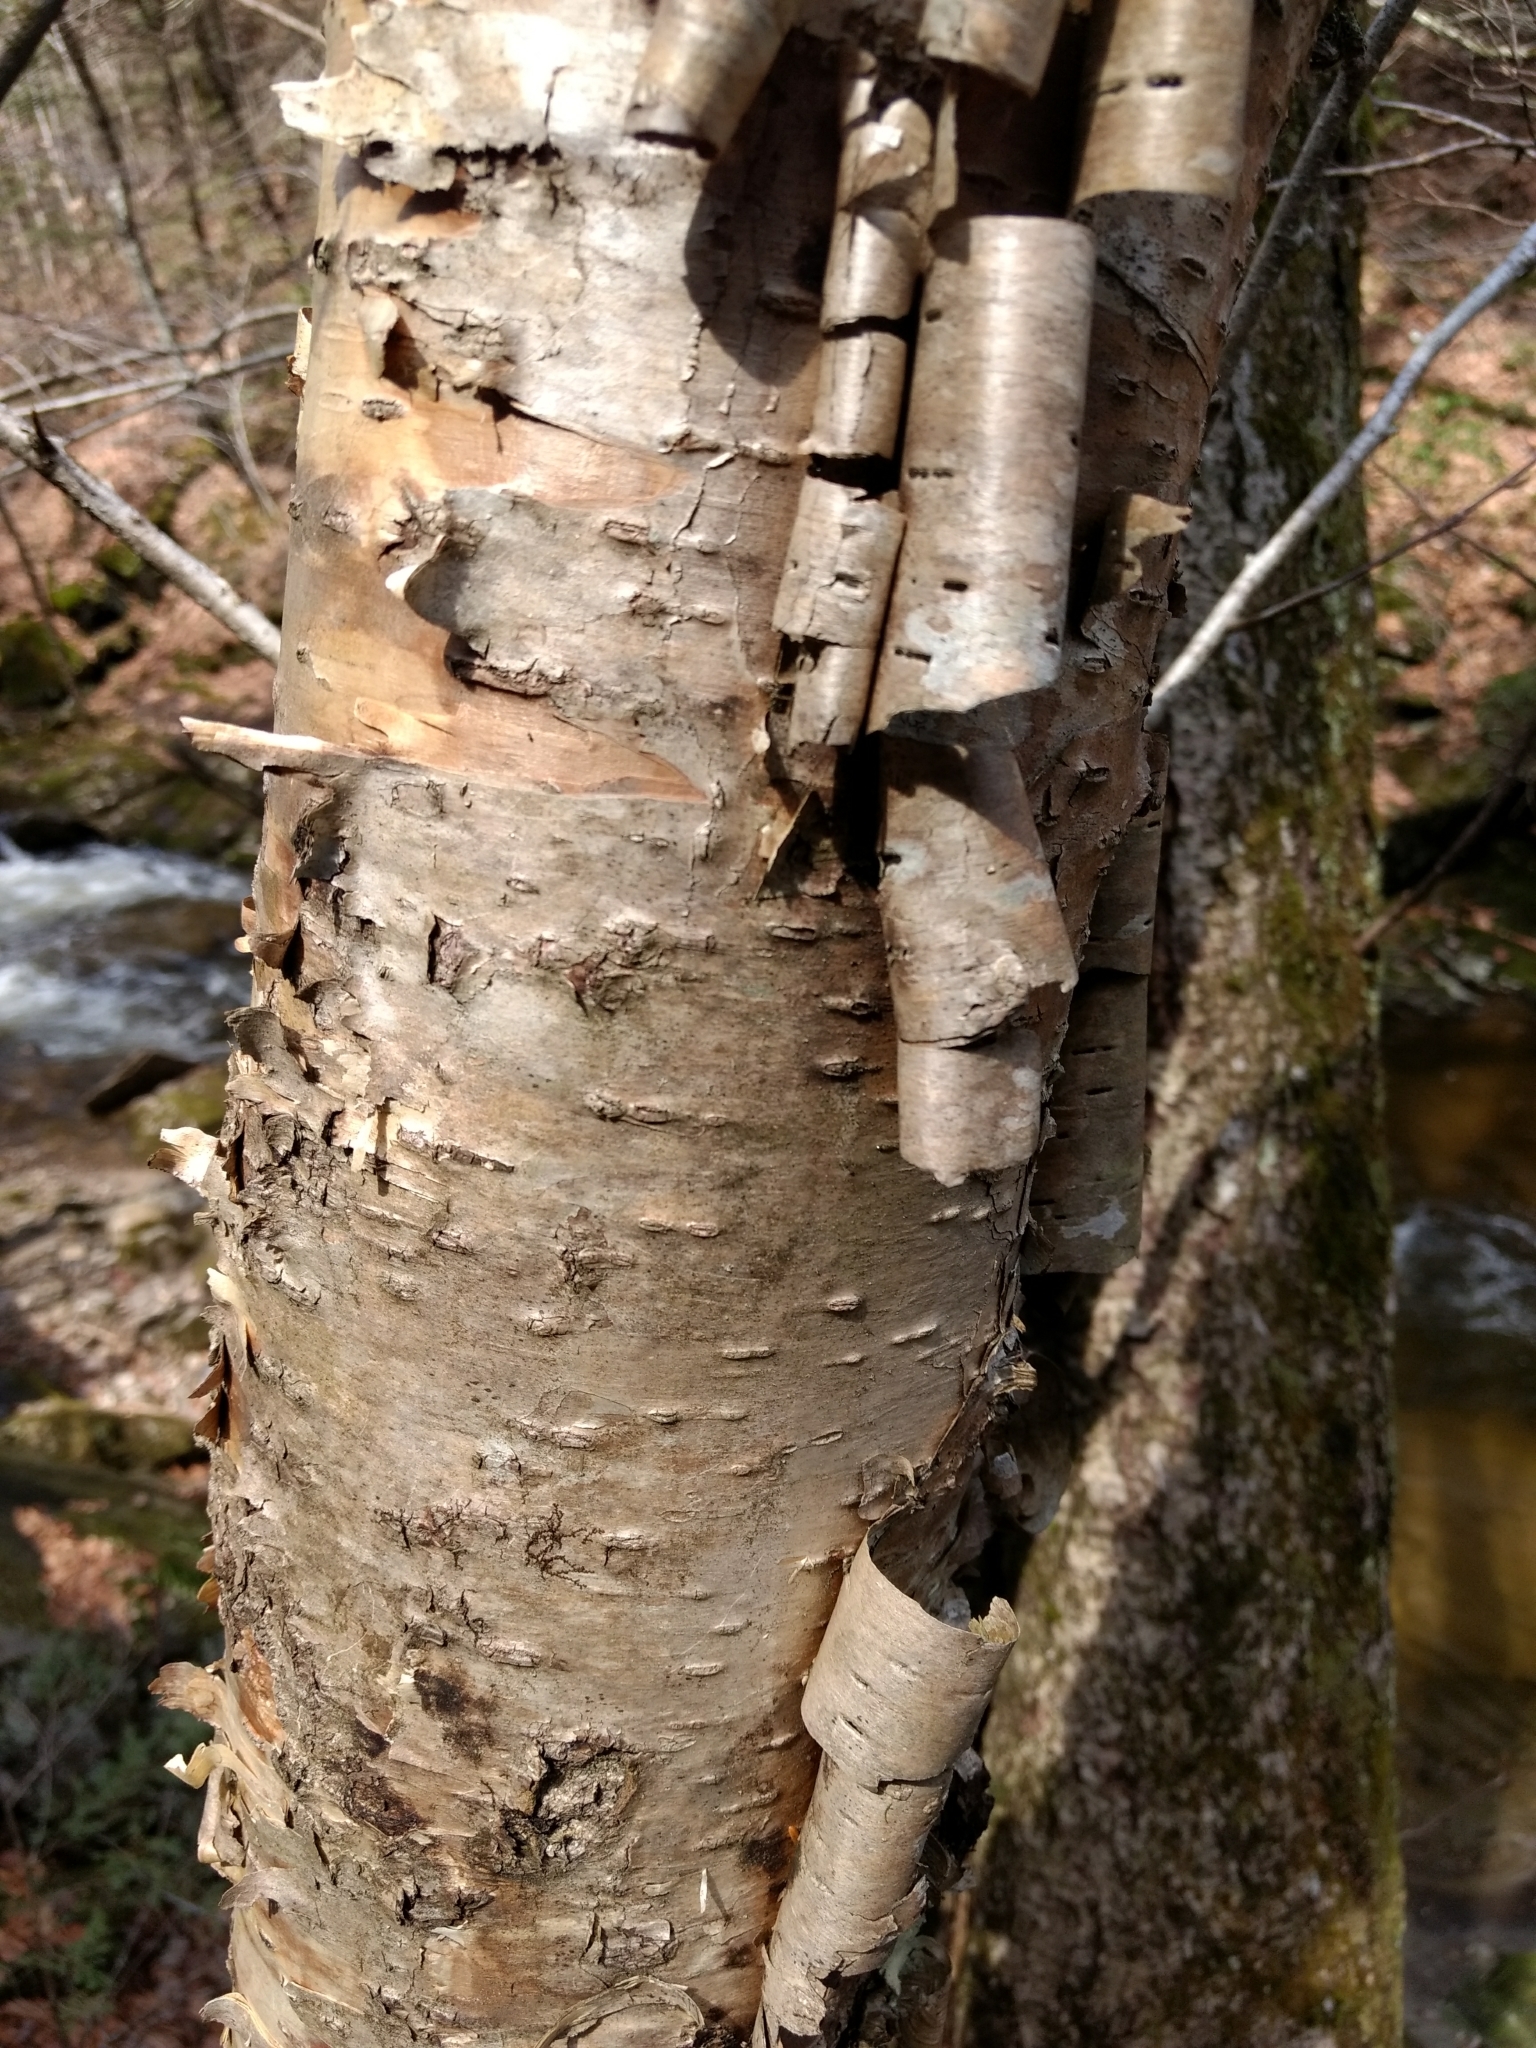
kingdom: Plantae
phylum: Tracheophyta
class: Magnoliopsida
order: Fagales
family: Betulaceae
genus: Betula
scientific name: Betula alleghaniensis
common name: Yellow birch
